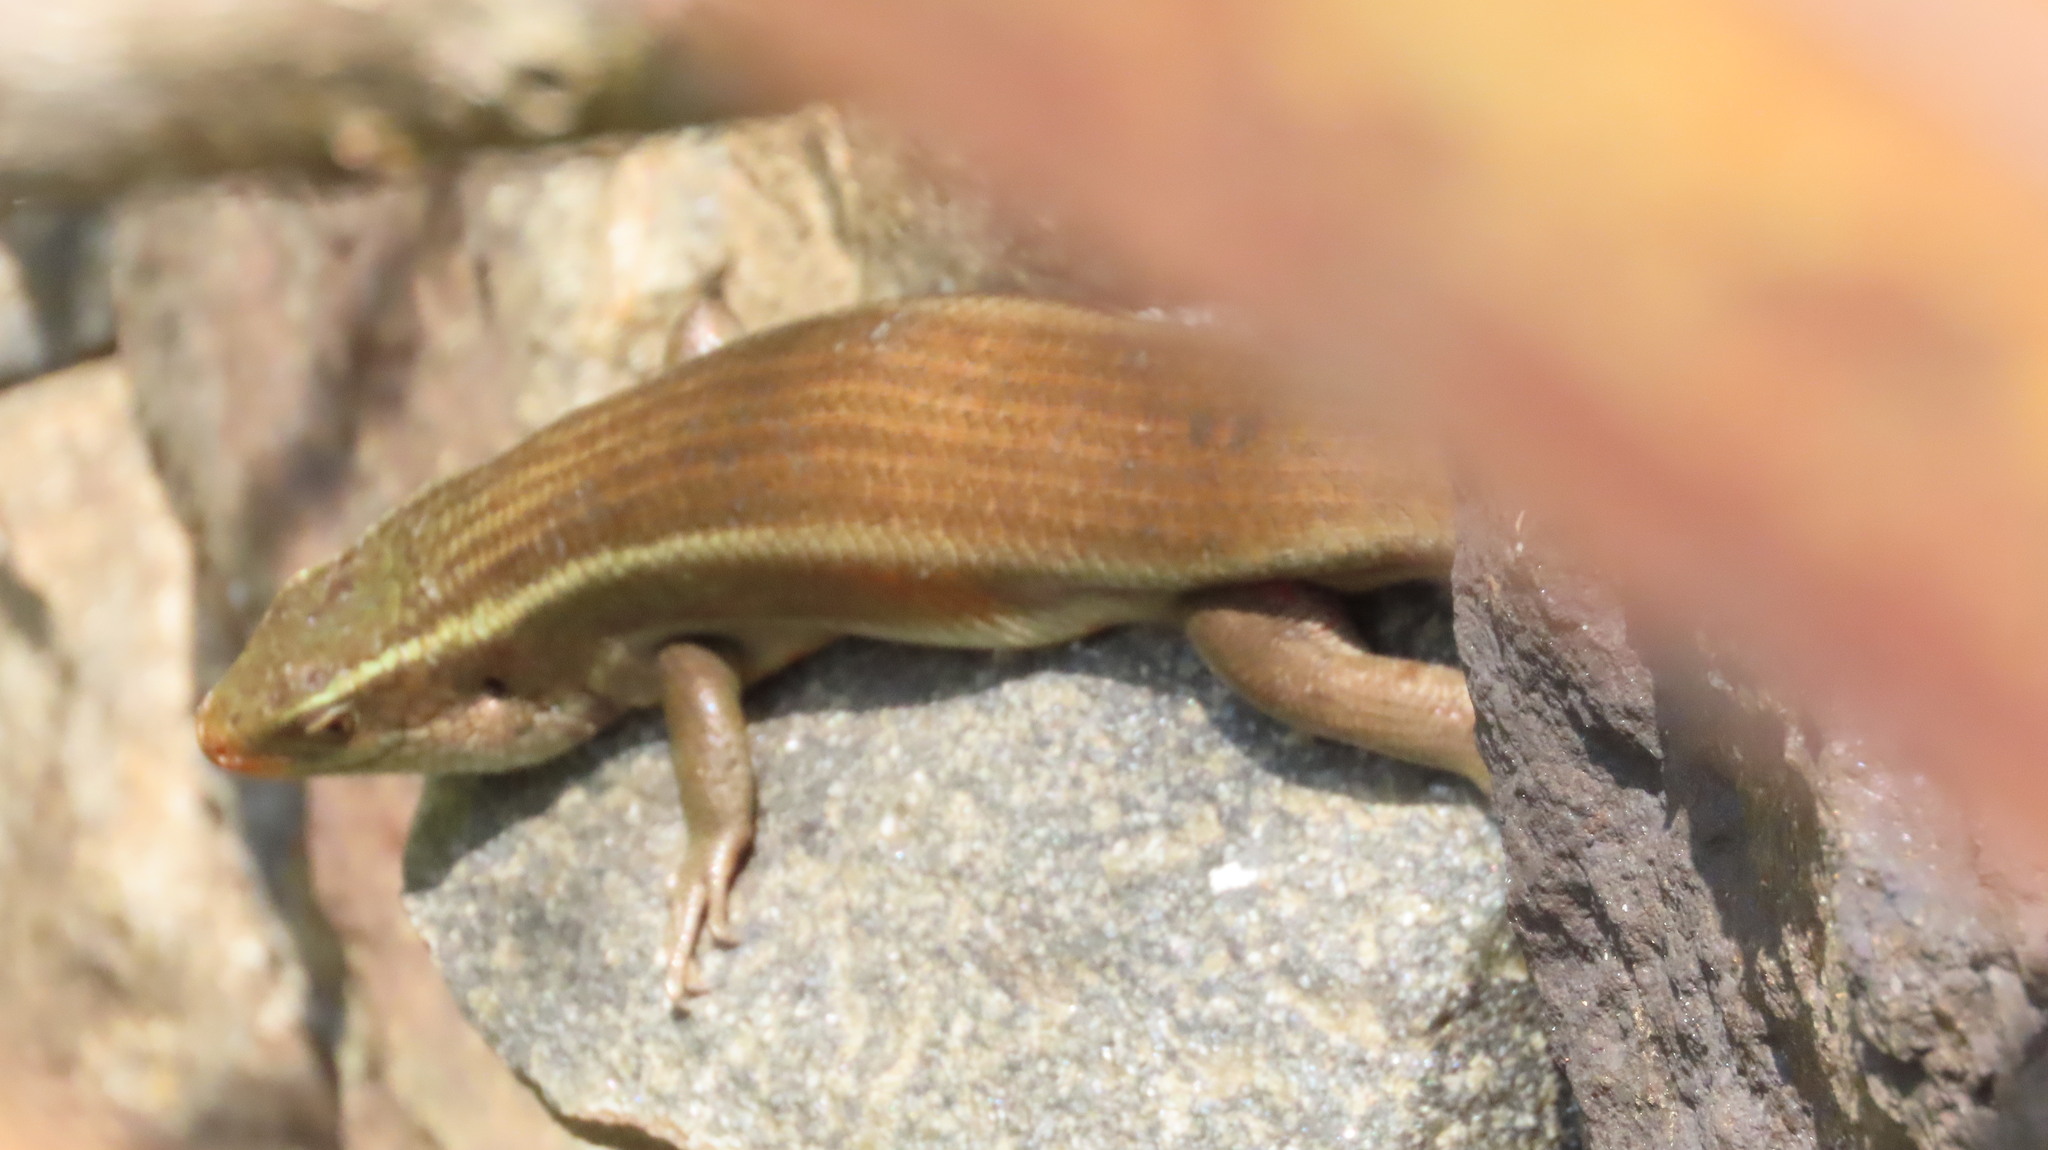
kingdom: Animalia
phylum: Chordata
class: Squamata
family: Scincidae
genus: Eutropis
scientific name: Eutropis carinata
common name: Keeled indian mabuya
